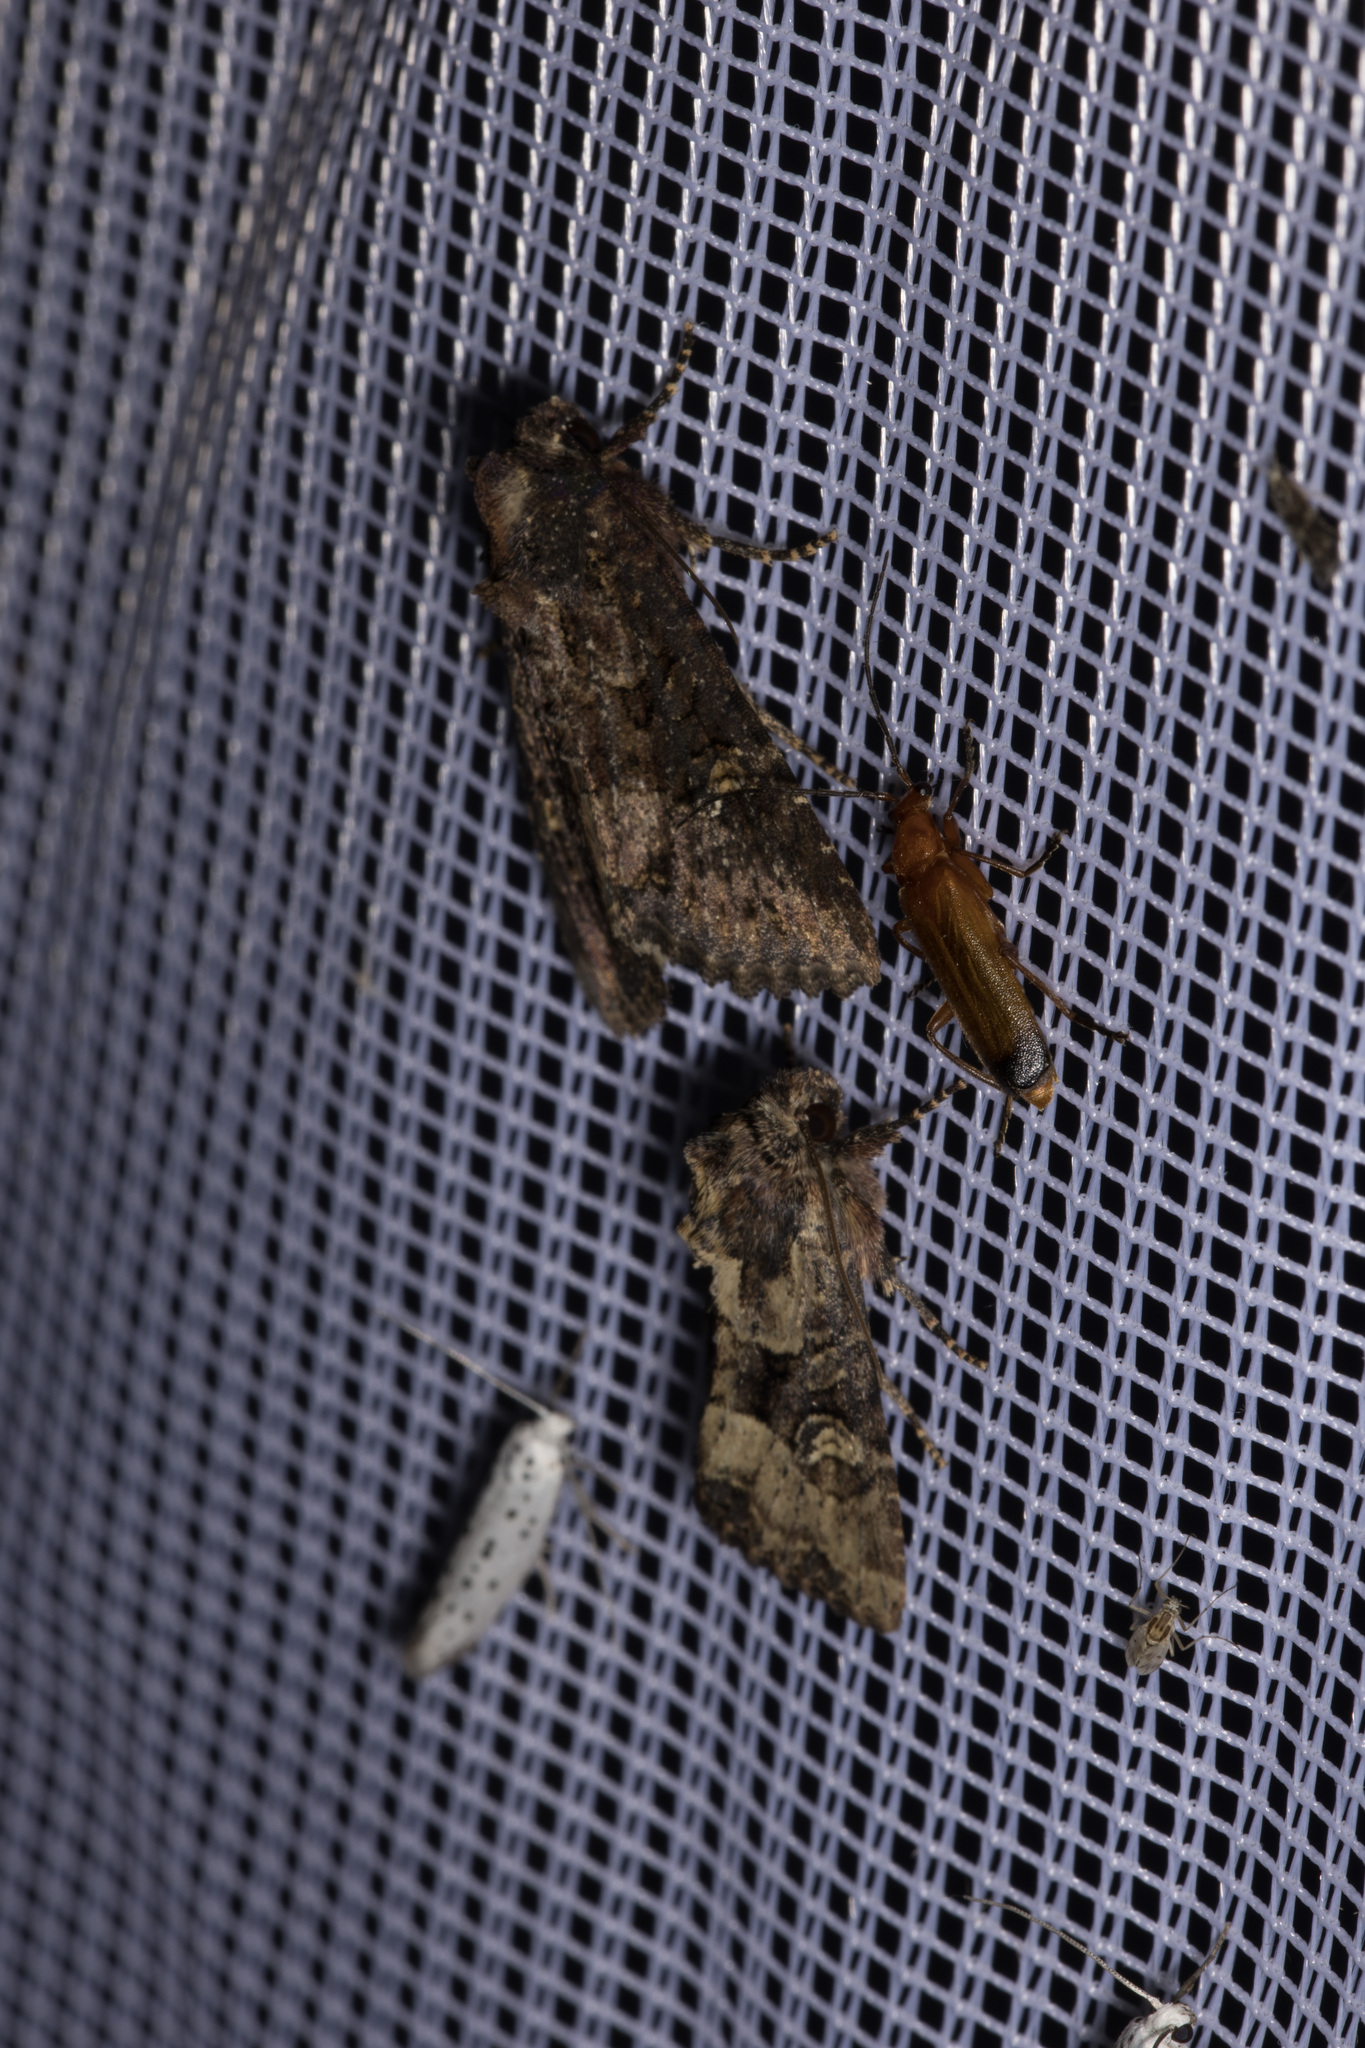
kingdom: Animalia
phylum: Arthropoda
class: Insecta
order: Coleoptera
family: Cantharidae
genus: Rhagonycha
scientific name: Rhagonycha fulva
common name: Common red soldier beetle
